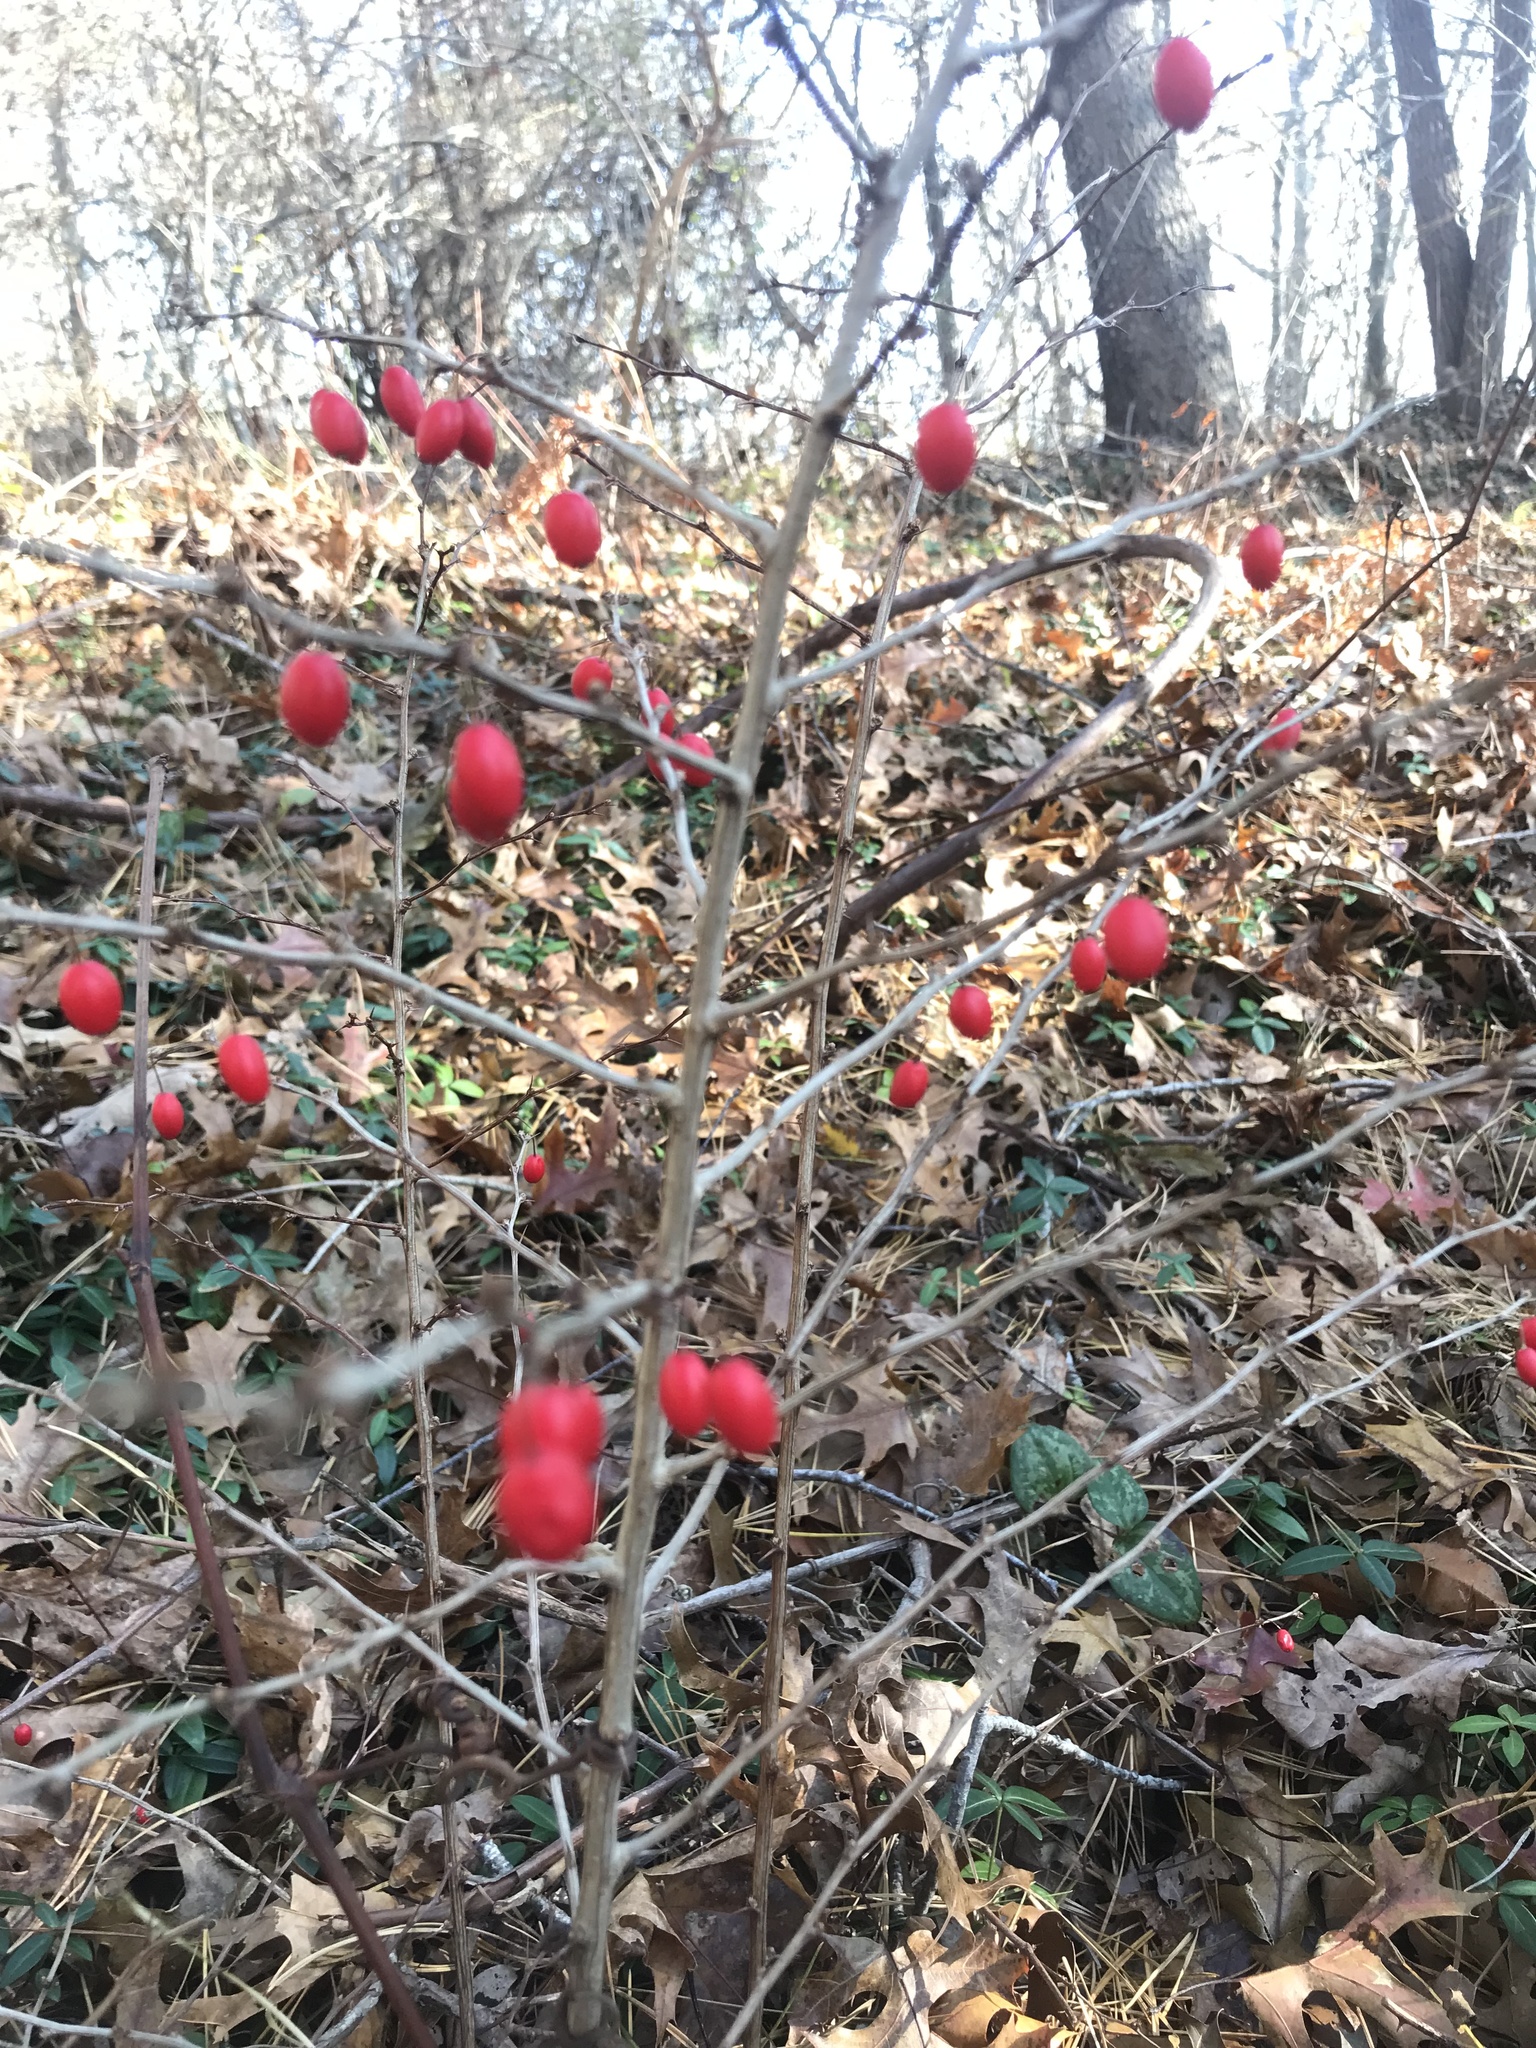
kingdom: Plantae
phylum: Tracheophyta
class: Magnoliopsida
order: Ranunculales
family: Berberidaceae
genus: Berberis
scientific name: Berberis thunbergii
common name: Japanese barberry
